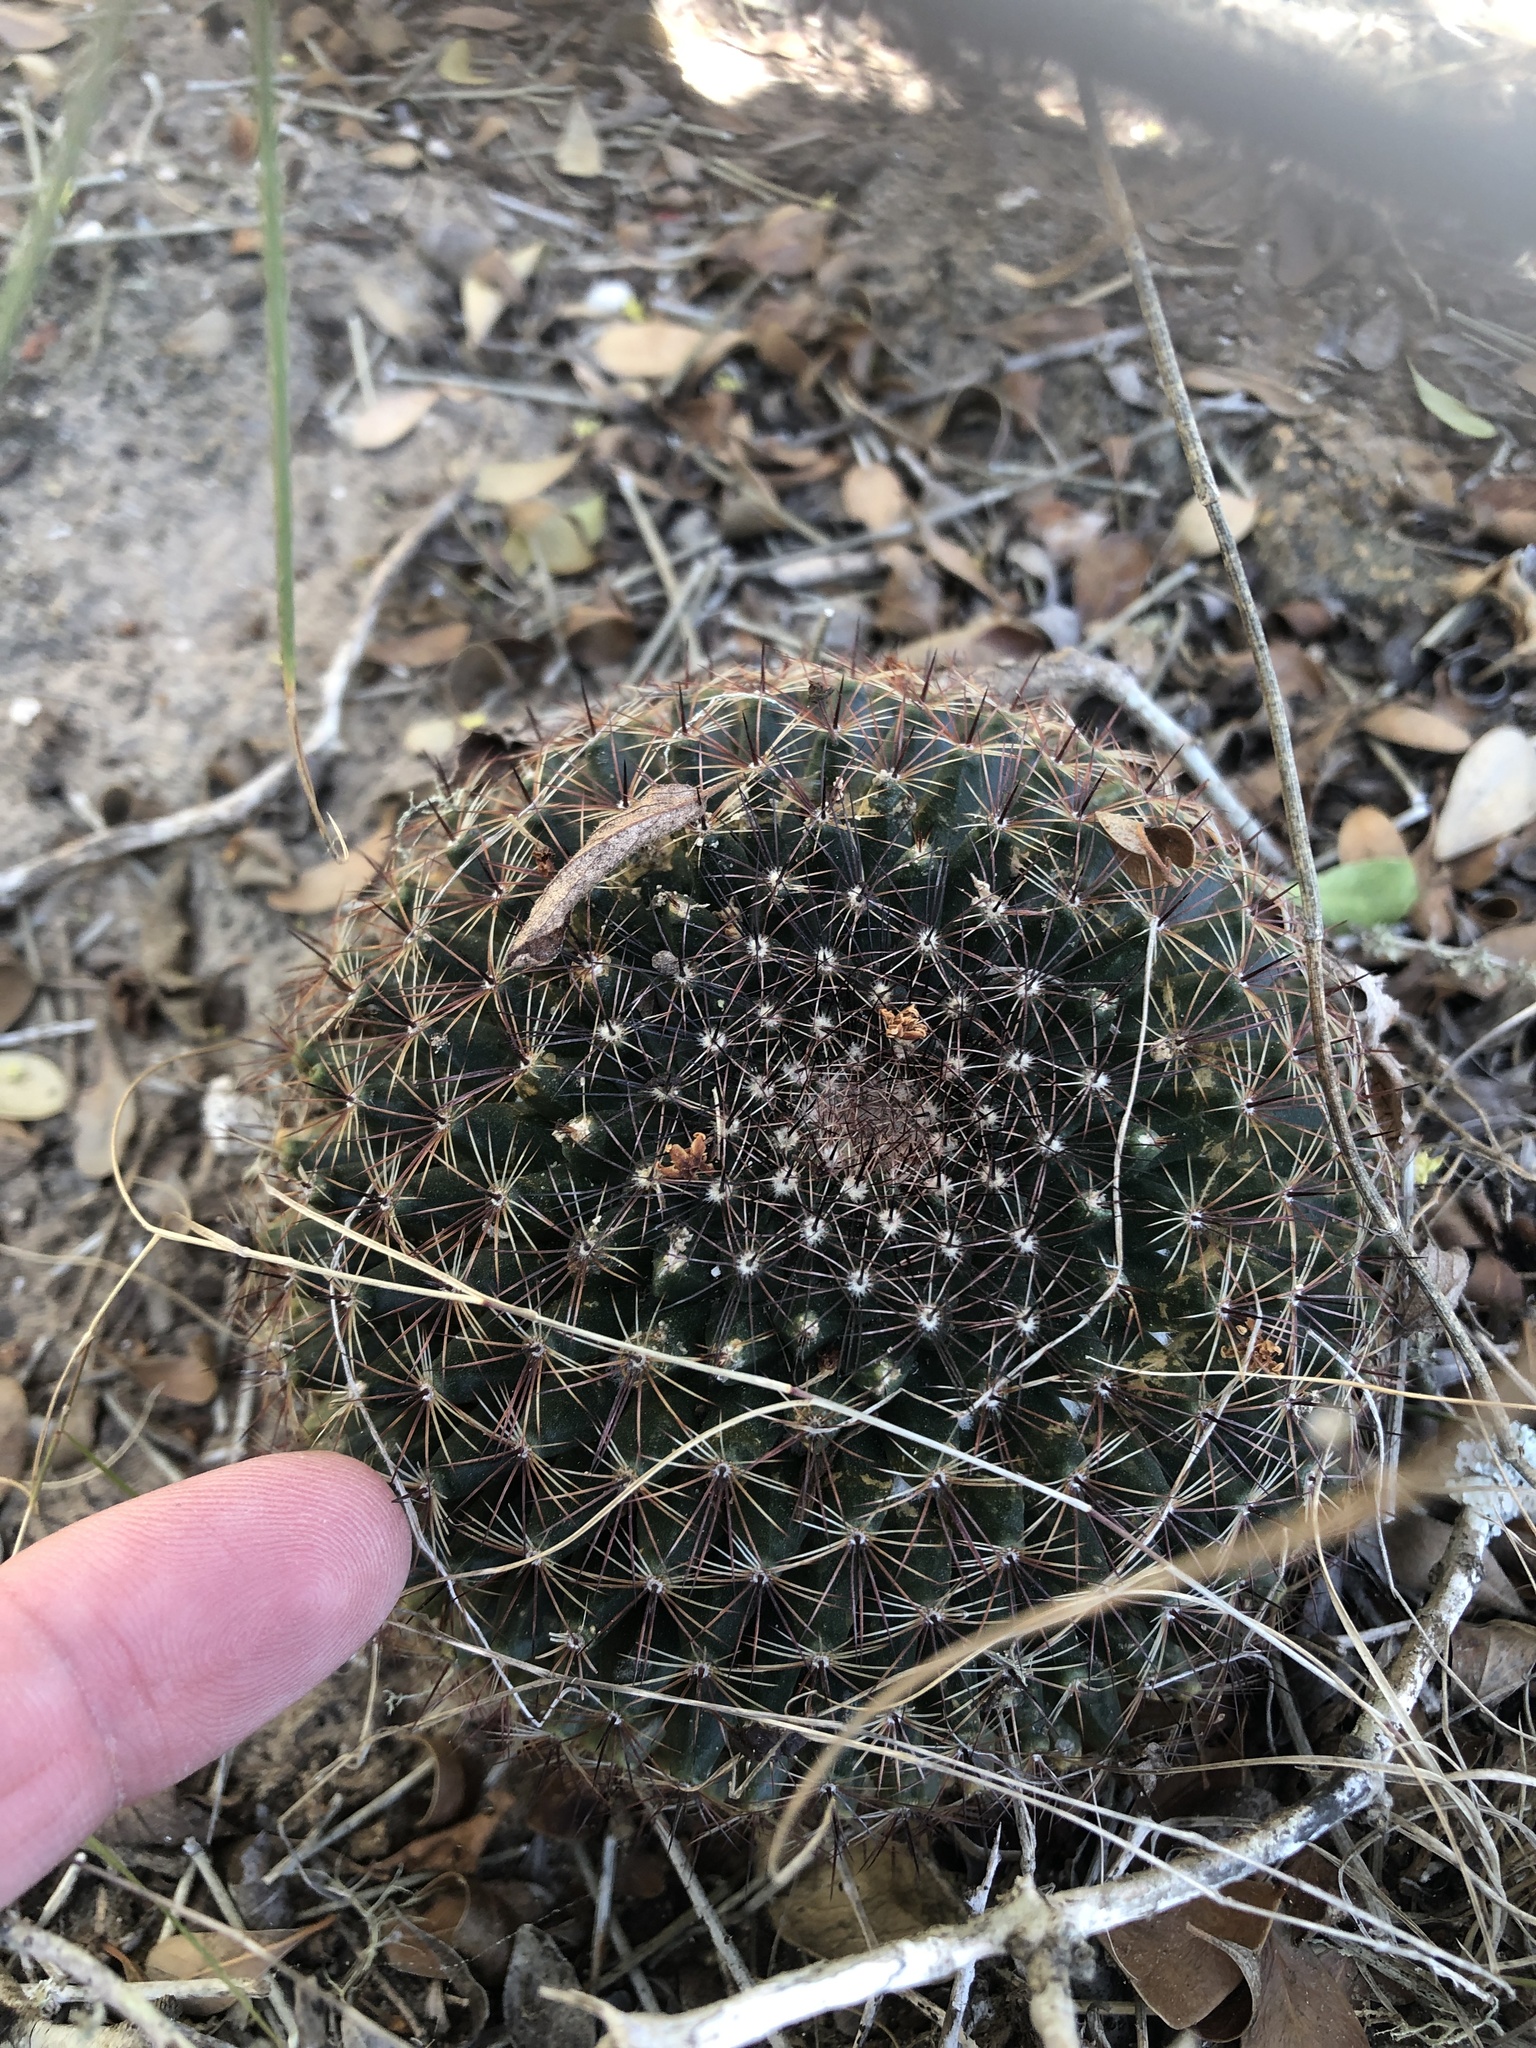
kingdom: Plantae
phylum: Tracheophyta
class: Magnoliopsida
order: Caryophyllales
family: Cactaceae
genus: Mammillaria
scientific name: Mammillaria heyderi
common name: Little nipple cactus
